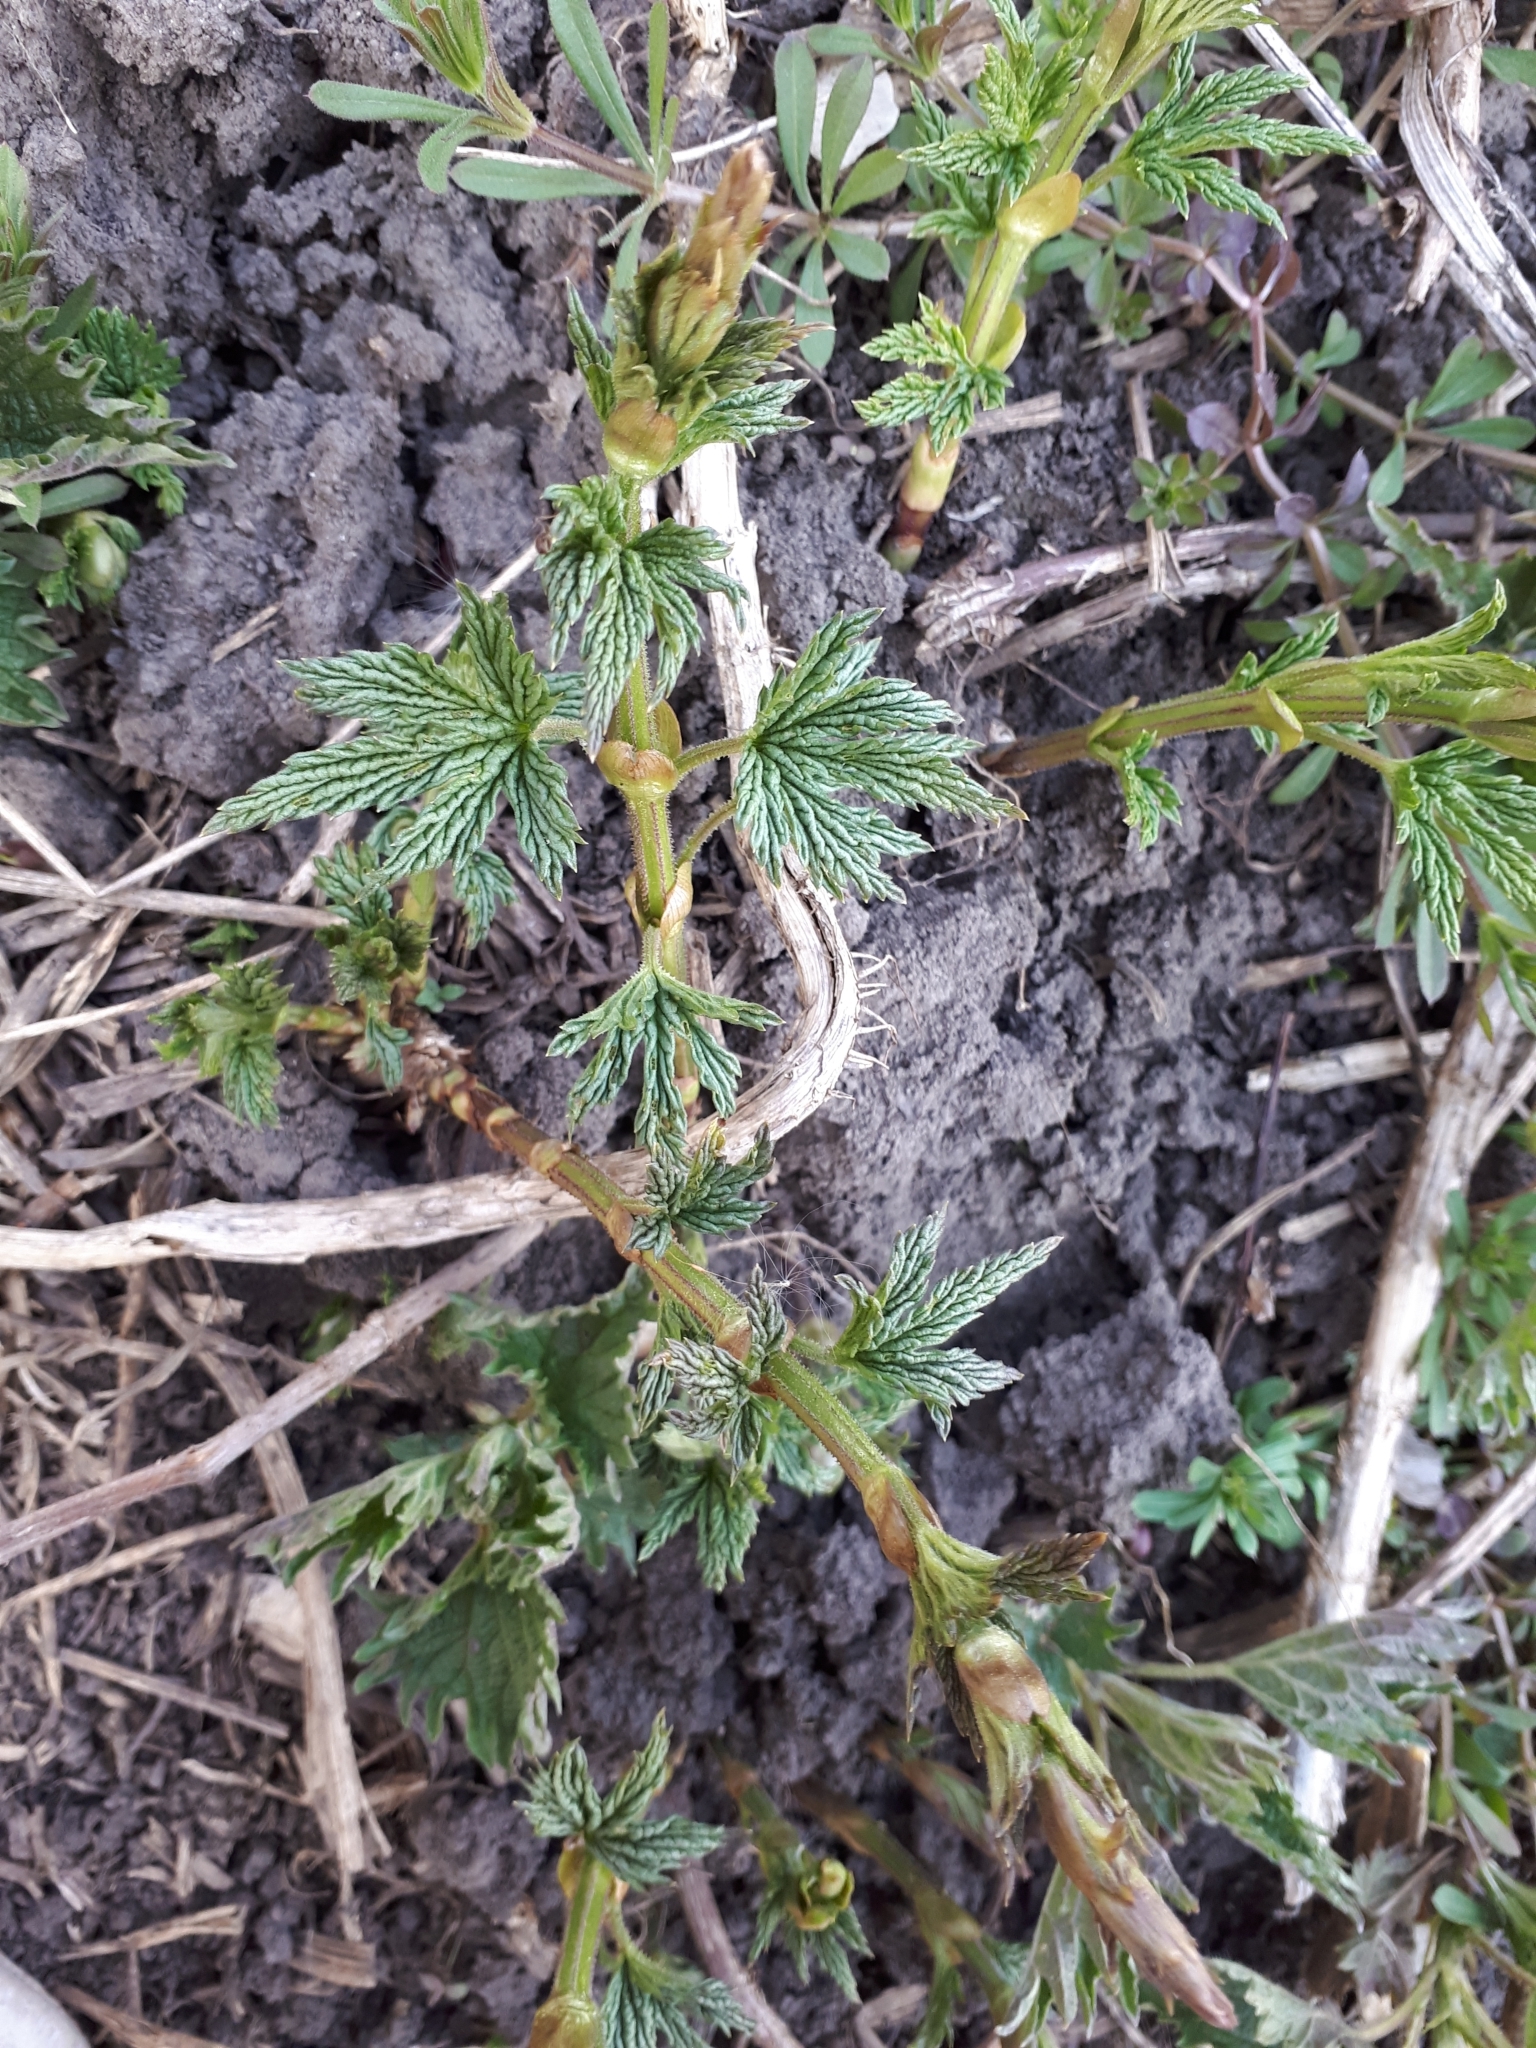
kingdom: Plantae
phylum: Tracheophyta
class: Magnoliopsida
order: Rosales
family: Cannabaceae
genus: Humulus
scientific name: Humulus lupulus
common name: Hop
